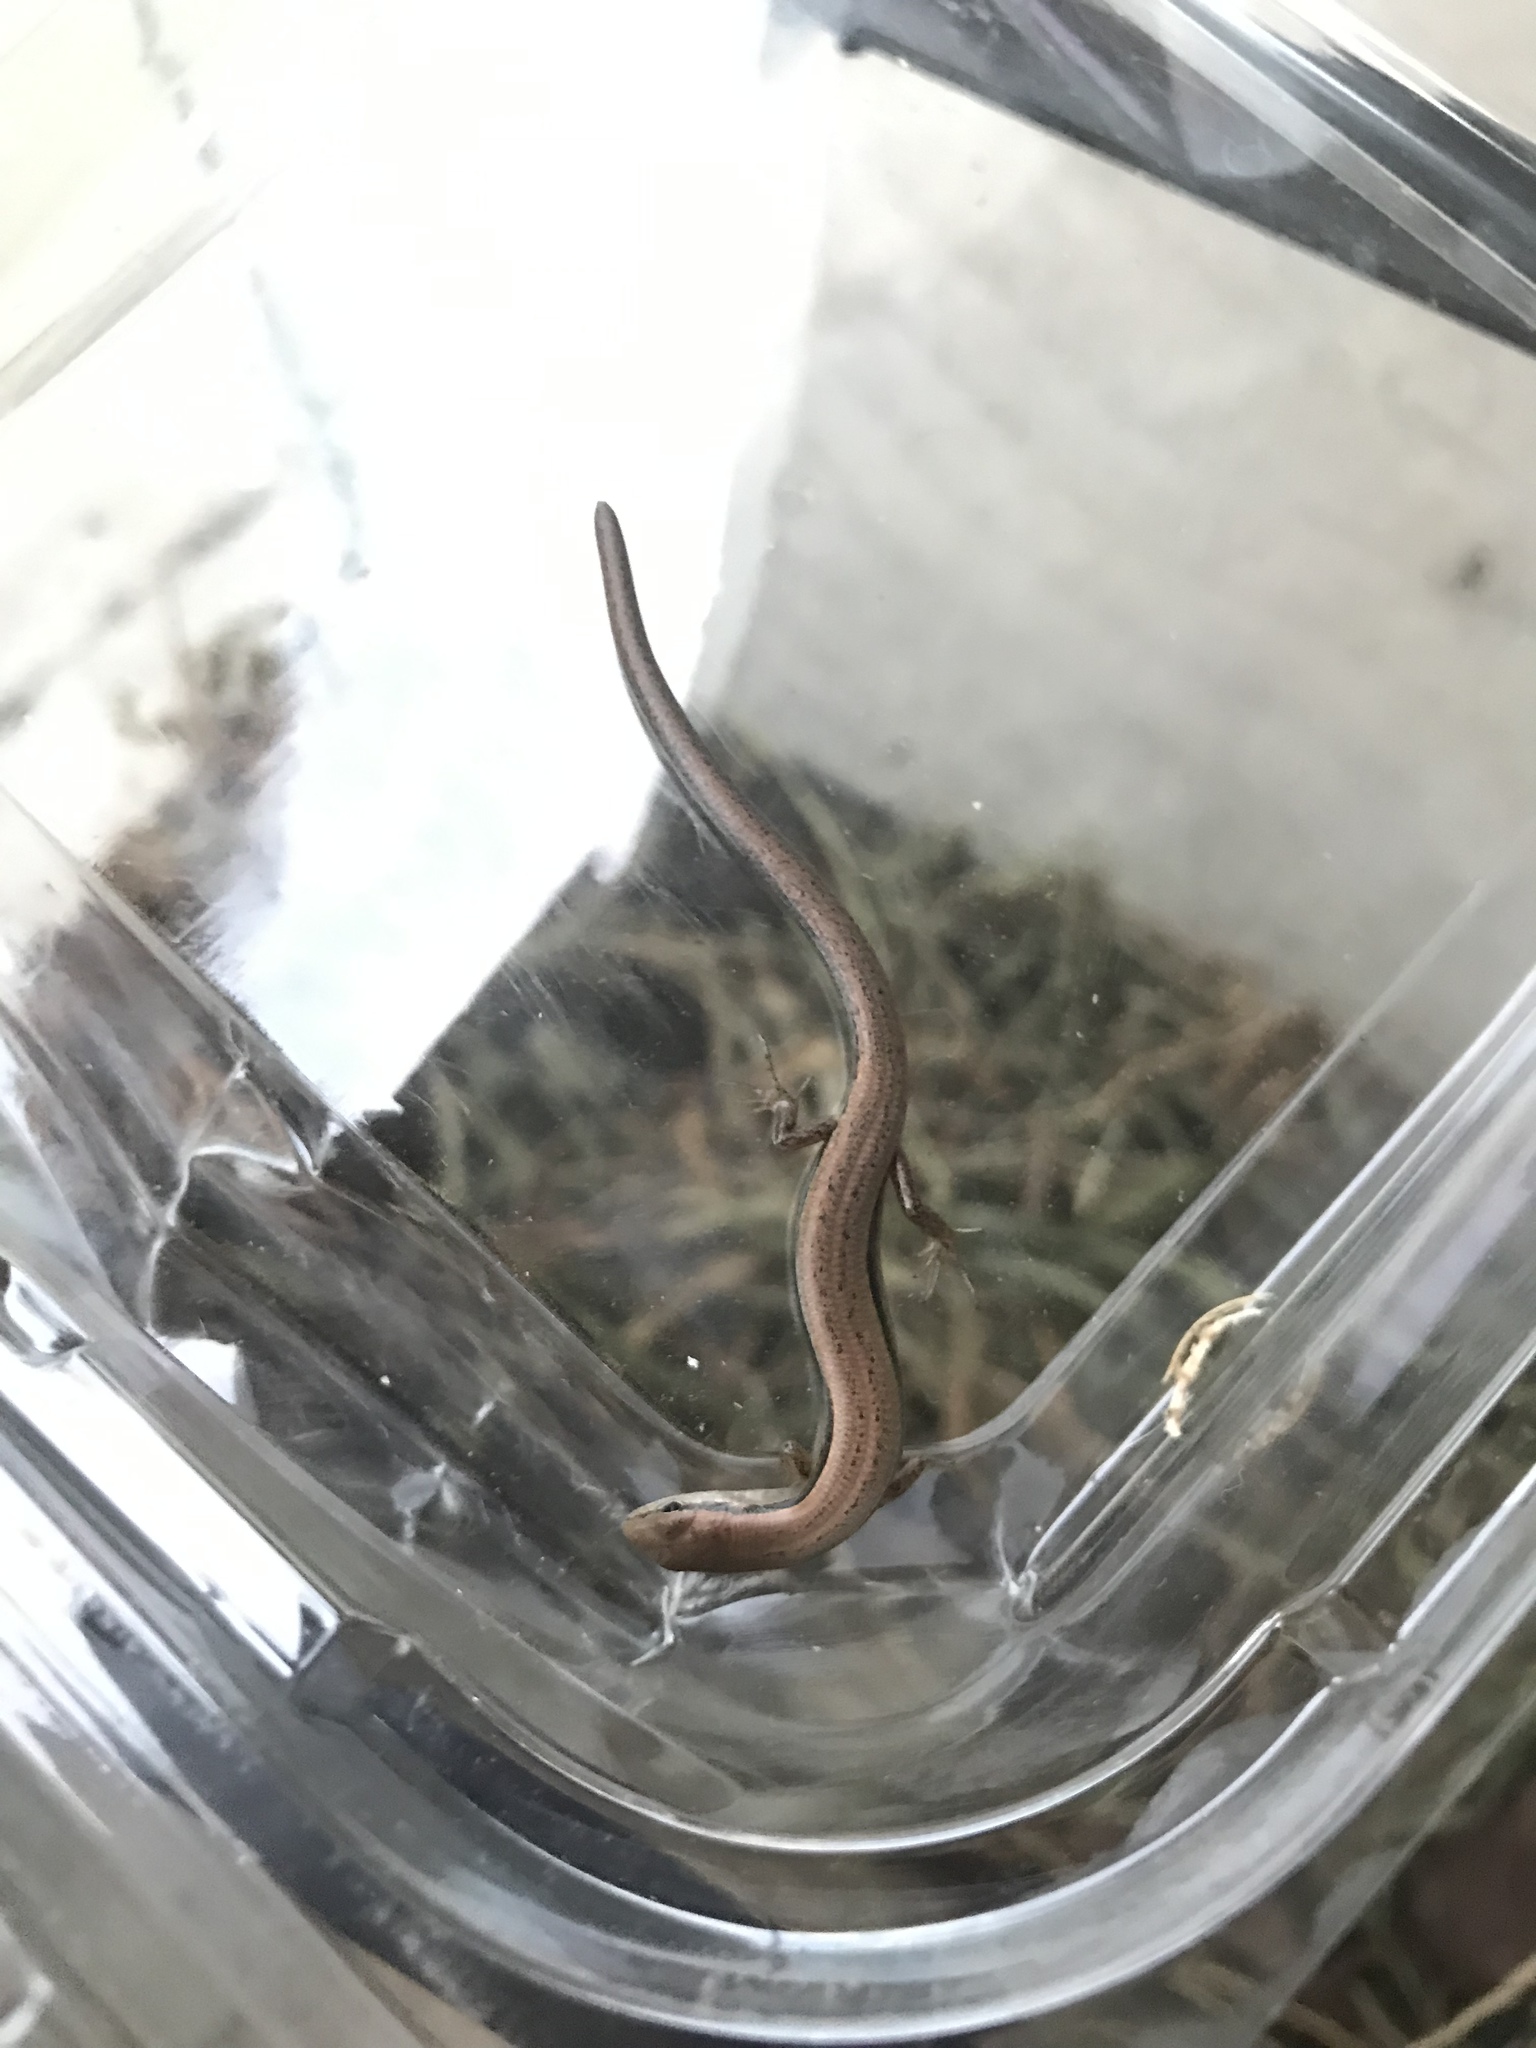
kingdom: Animalia
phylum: Chordata
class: Squamata
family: Scincidae
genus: Scincella
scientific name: Scincella lateralis
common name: Ground skink
